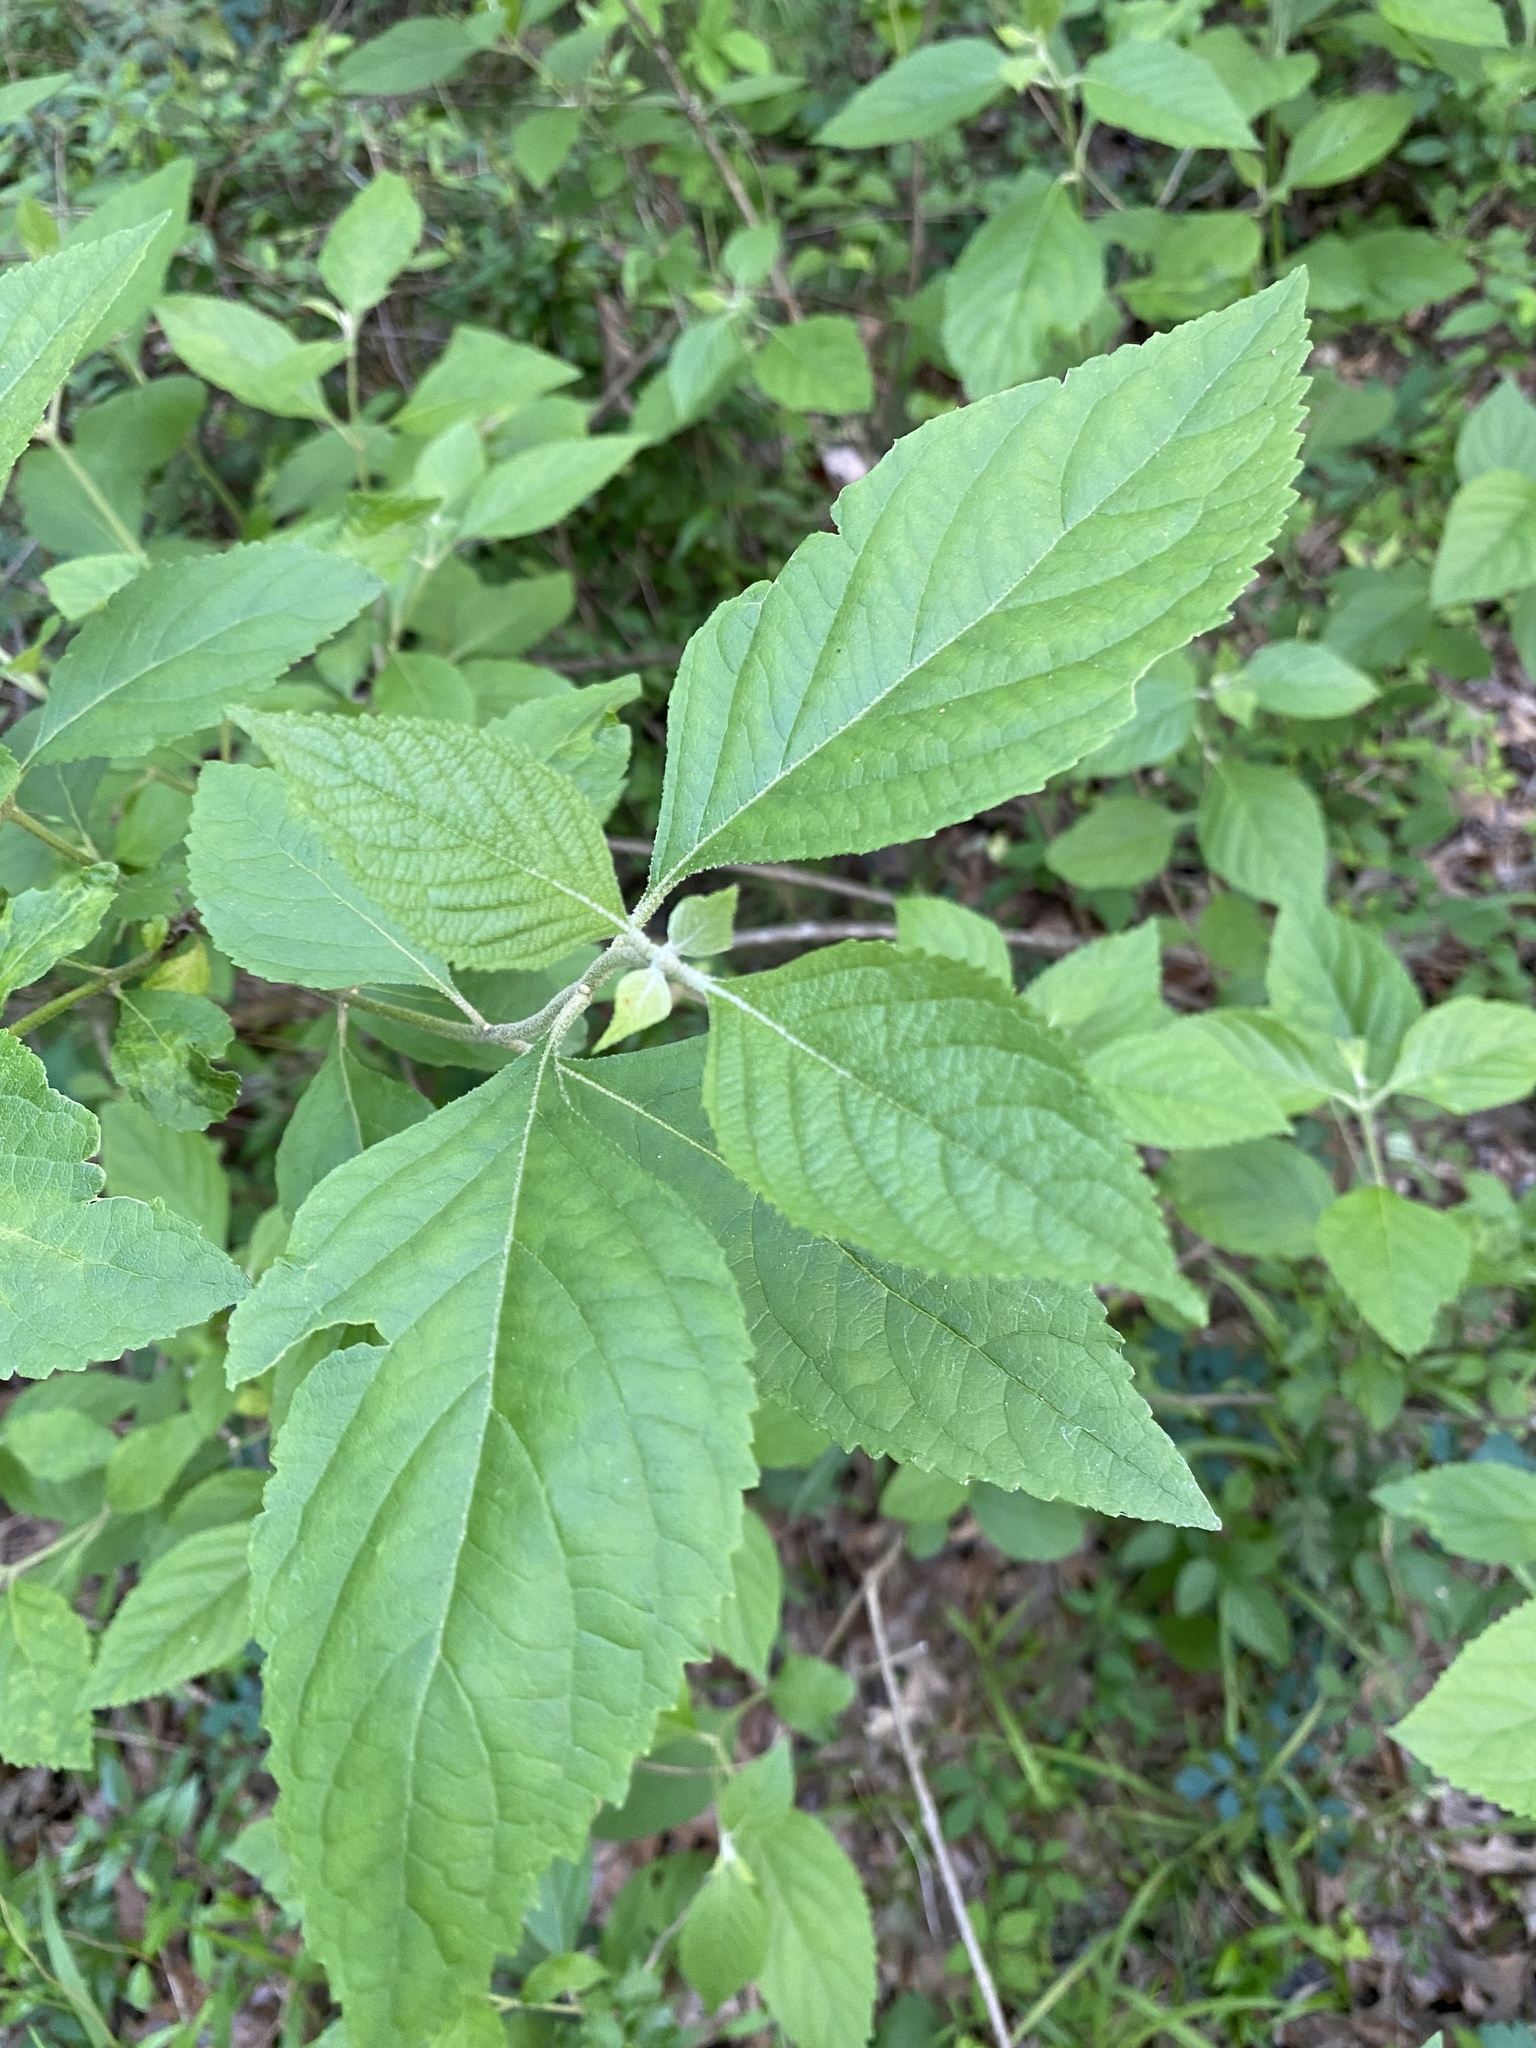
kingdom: Plantae
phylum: Tracheophyta
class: Magnoliopsida
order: Lamiales
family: Lamiaceae
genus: Callicarpa
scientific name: Callicarpa americana
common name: American beautyberry
